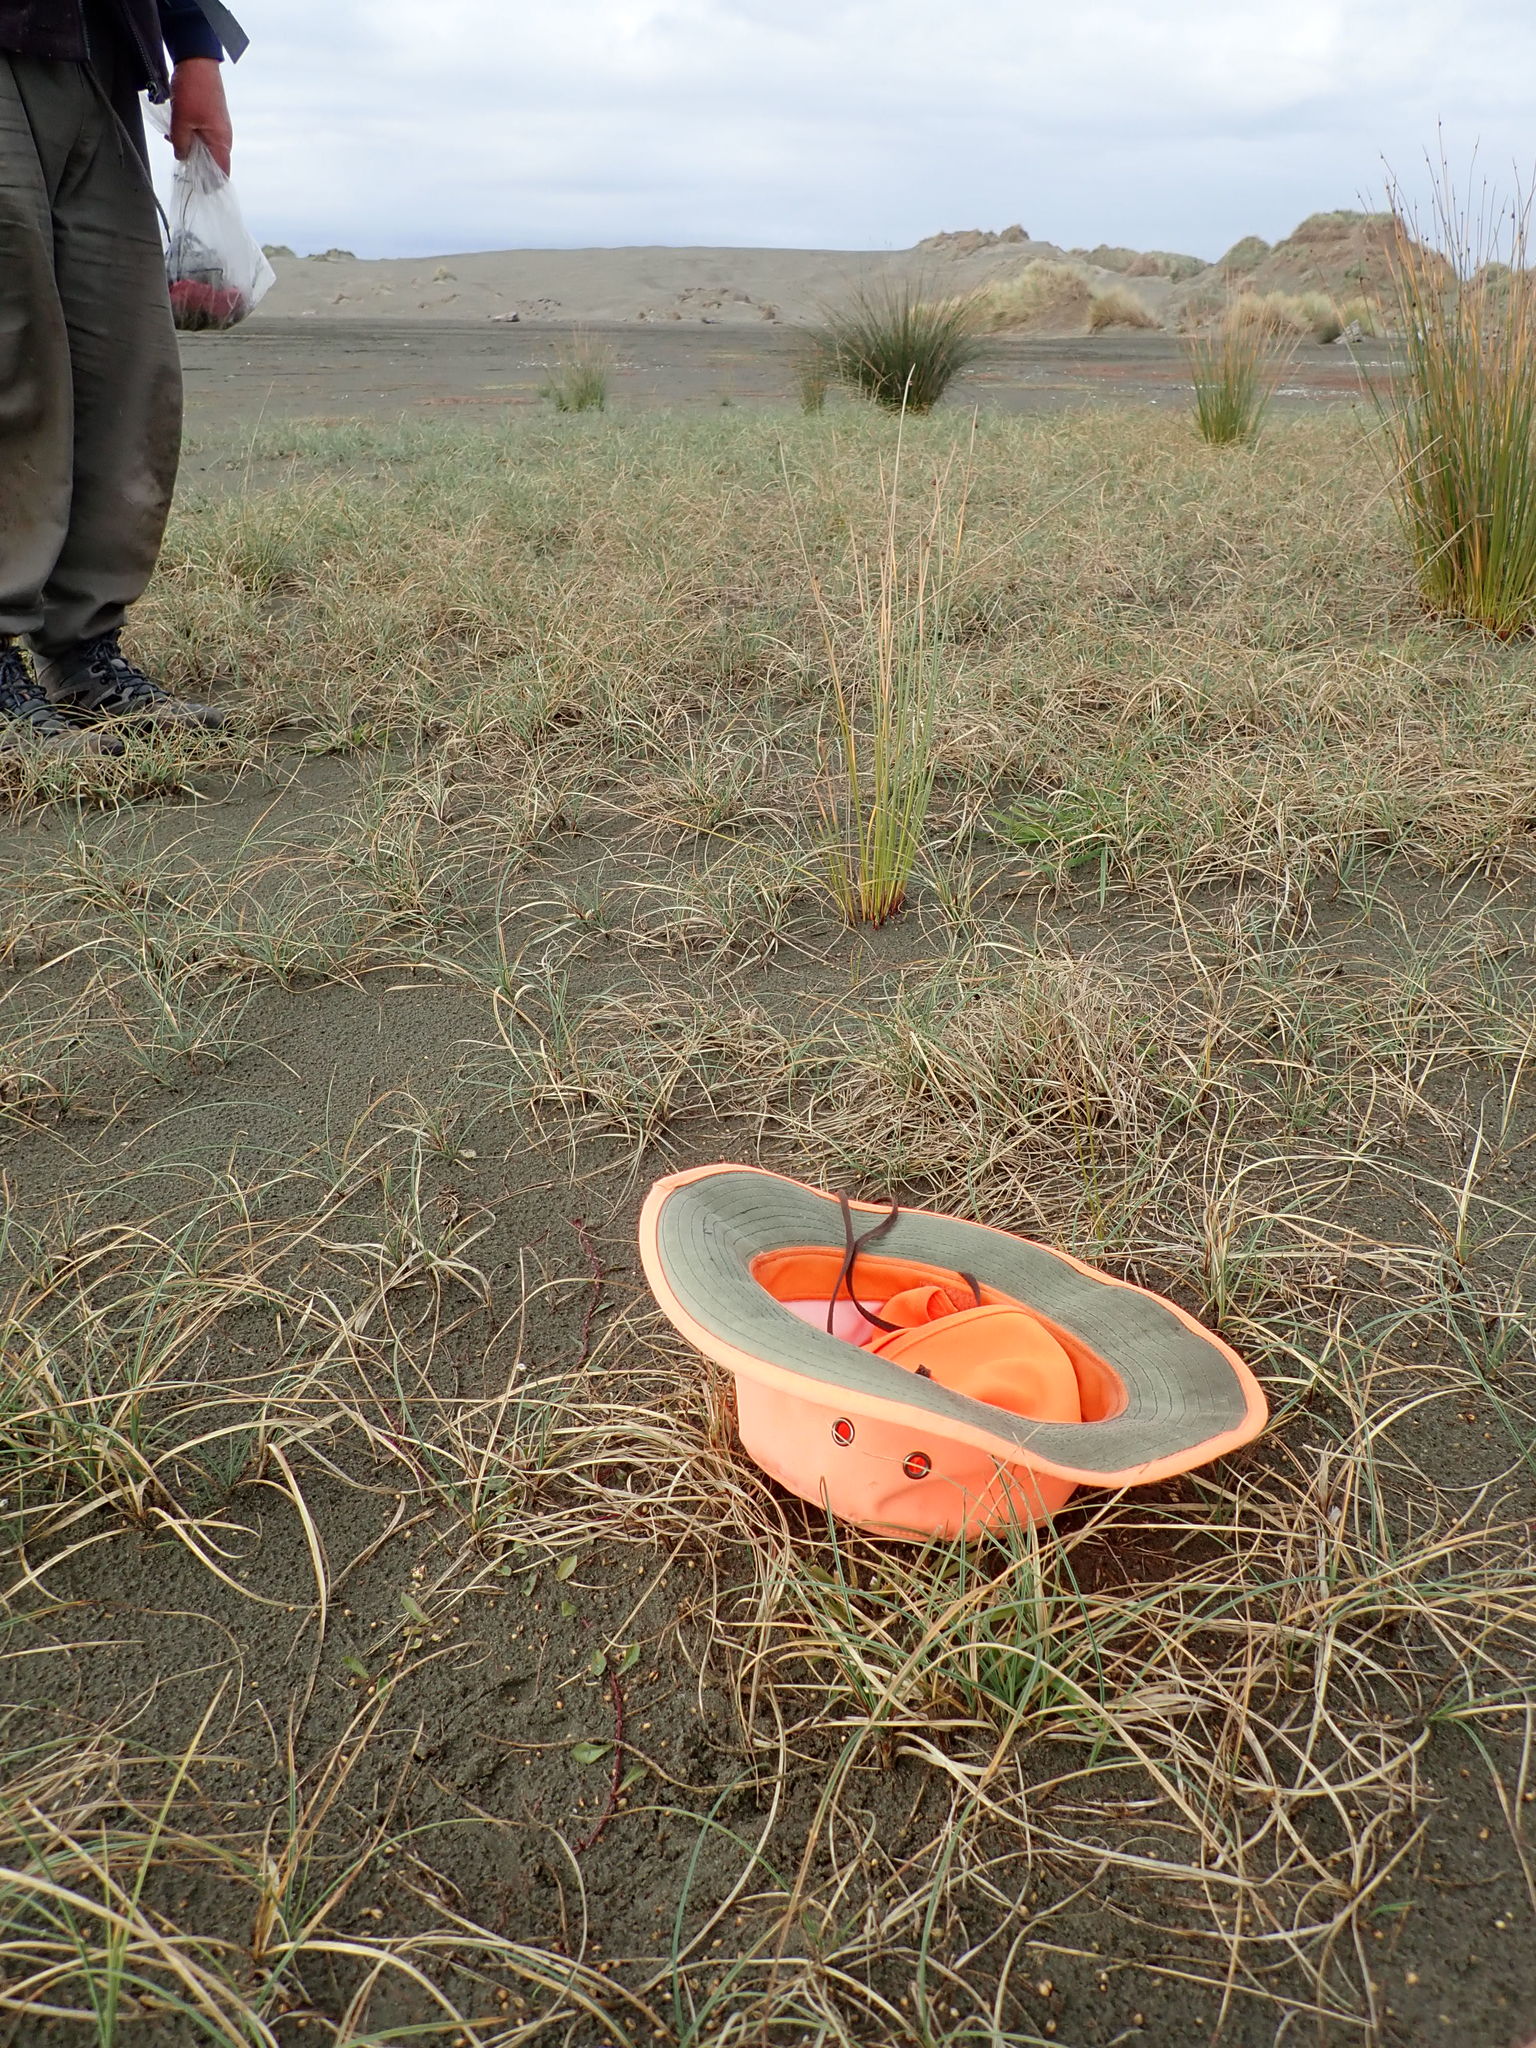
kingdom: Plantae
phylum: Tracheophyta
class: Magnoliopsida
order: Asterales
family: Campanulaceae
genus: Lobelia
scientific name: Lobelia anceps
